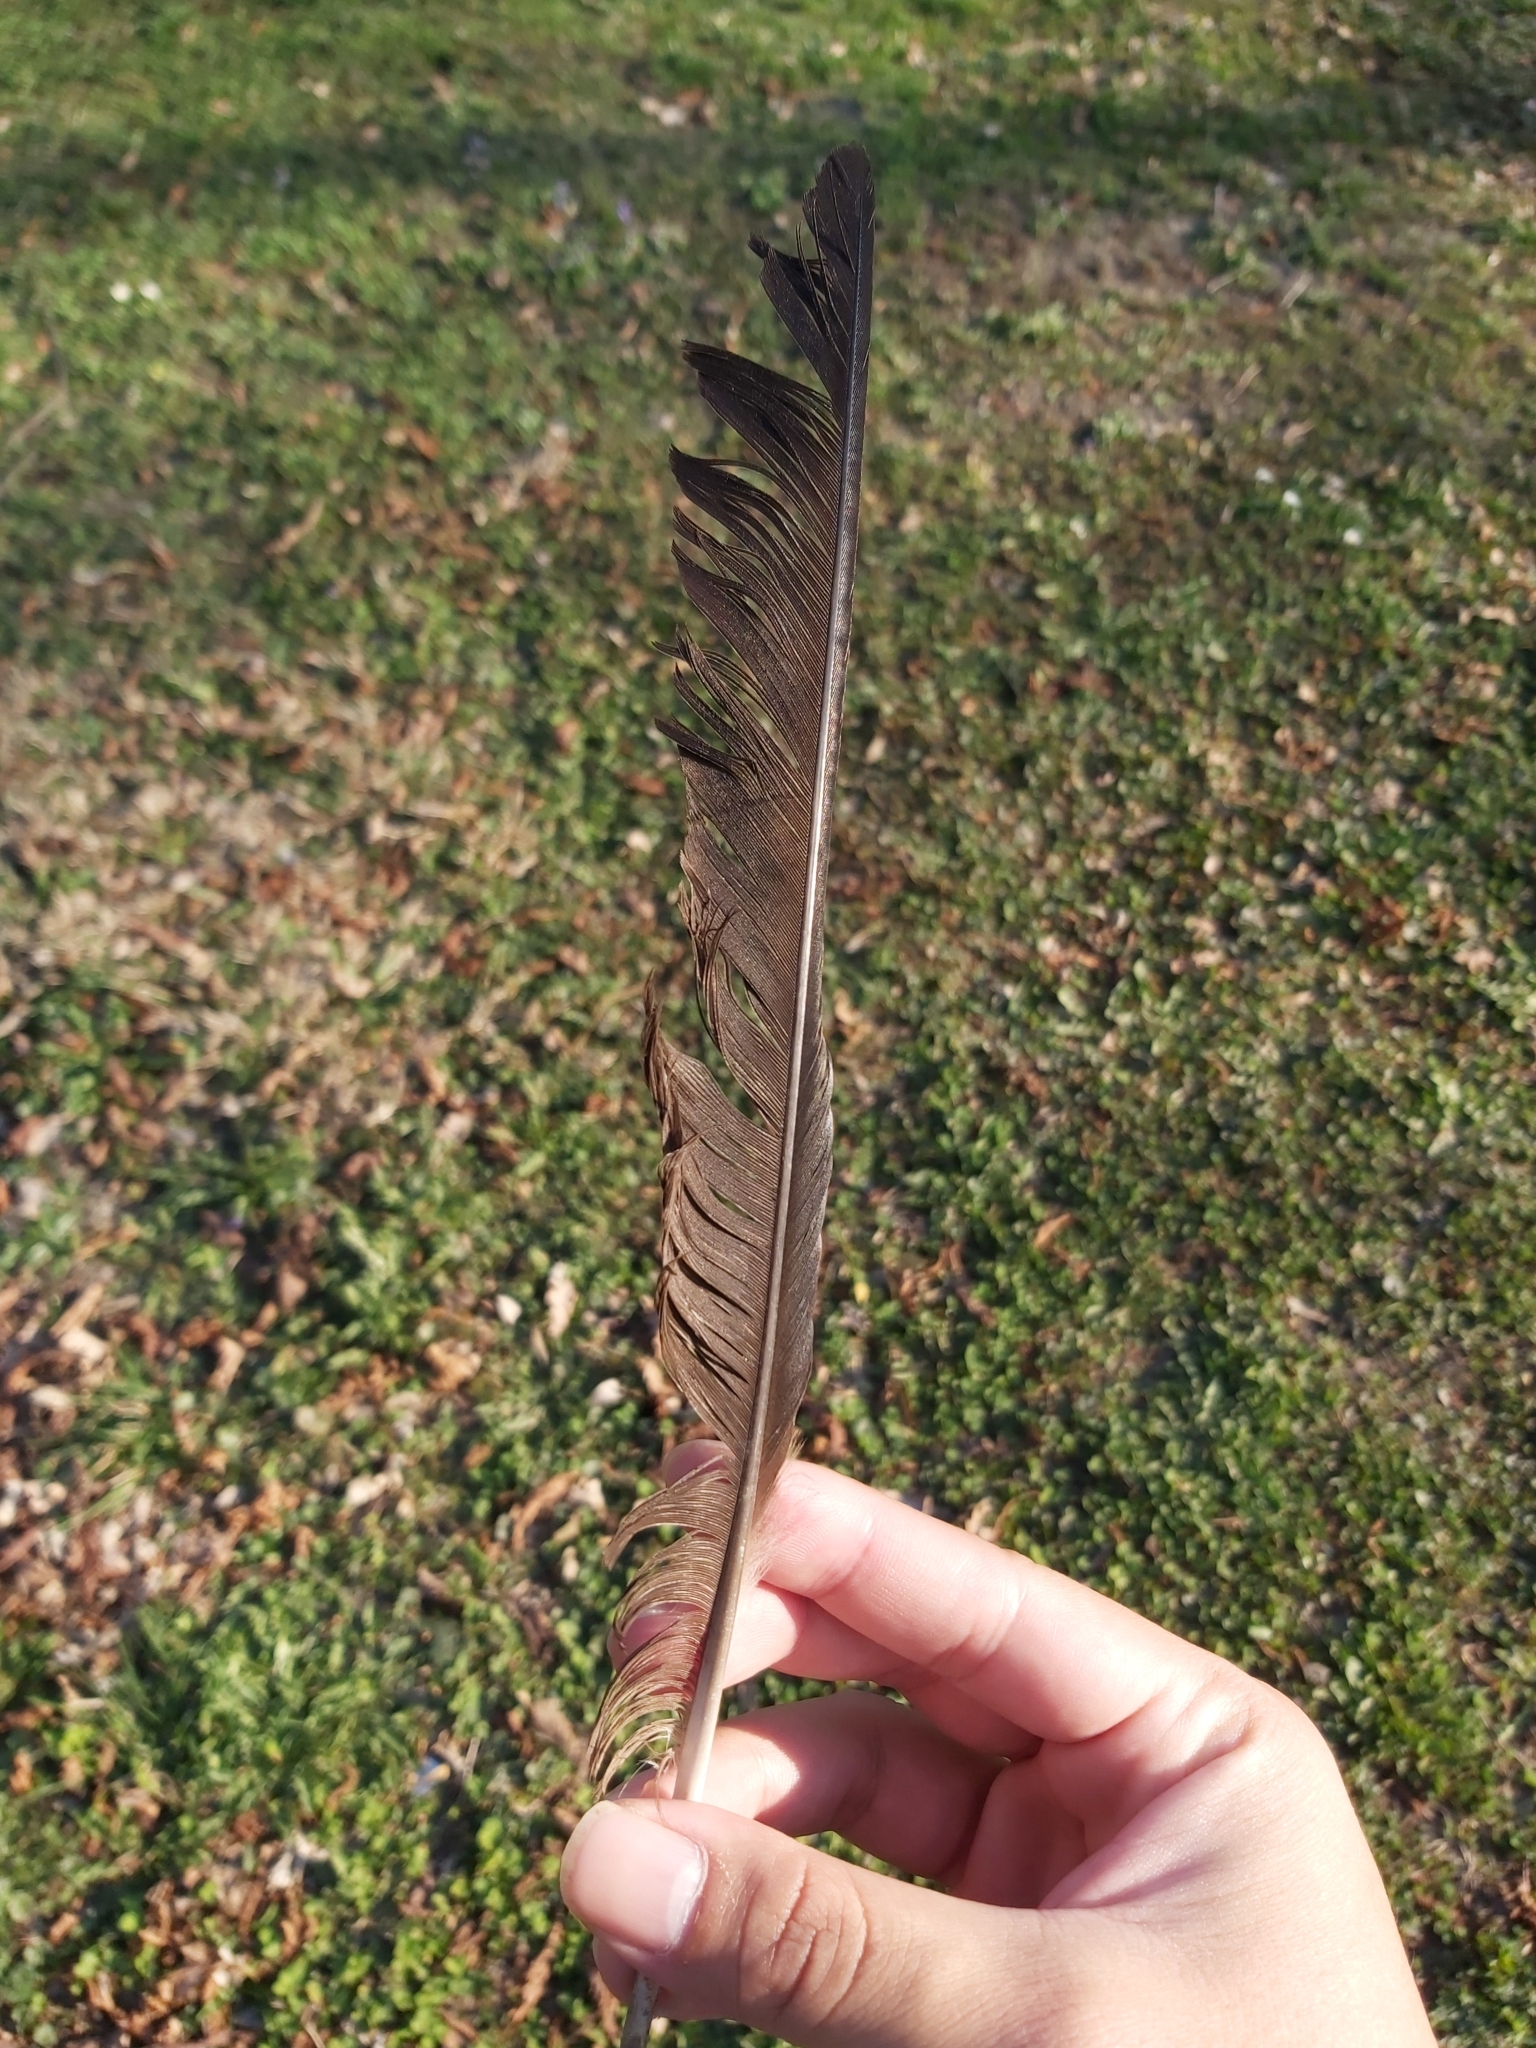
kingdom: Animalia
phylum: Chordata
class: Aves
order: Passeriformes
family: Corvidae
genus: Corvus
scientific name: Corvus cornix
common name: Hooded crow
